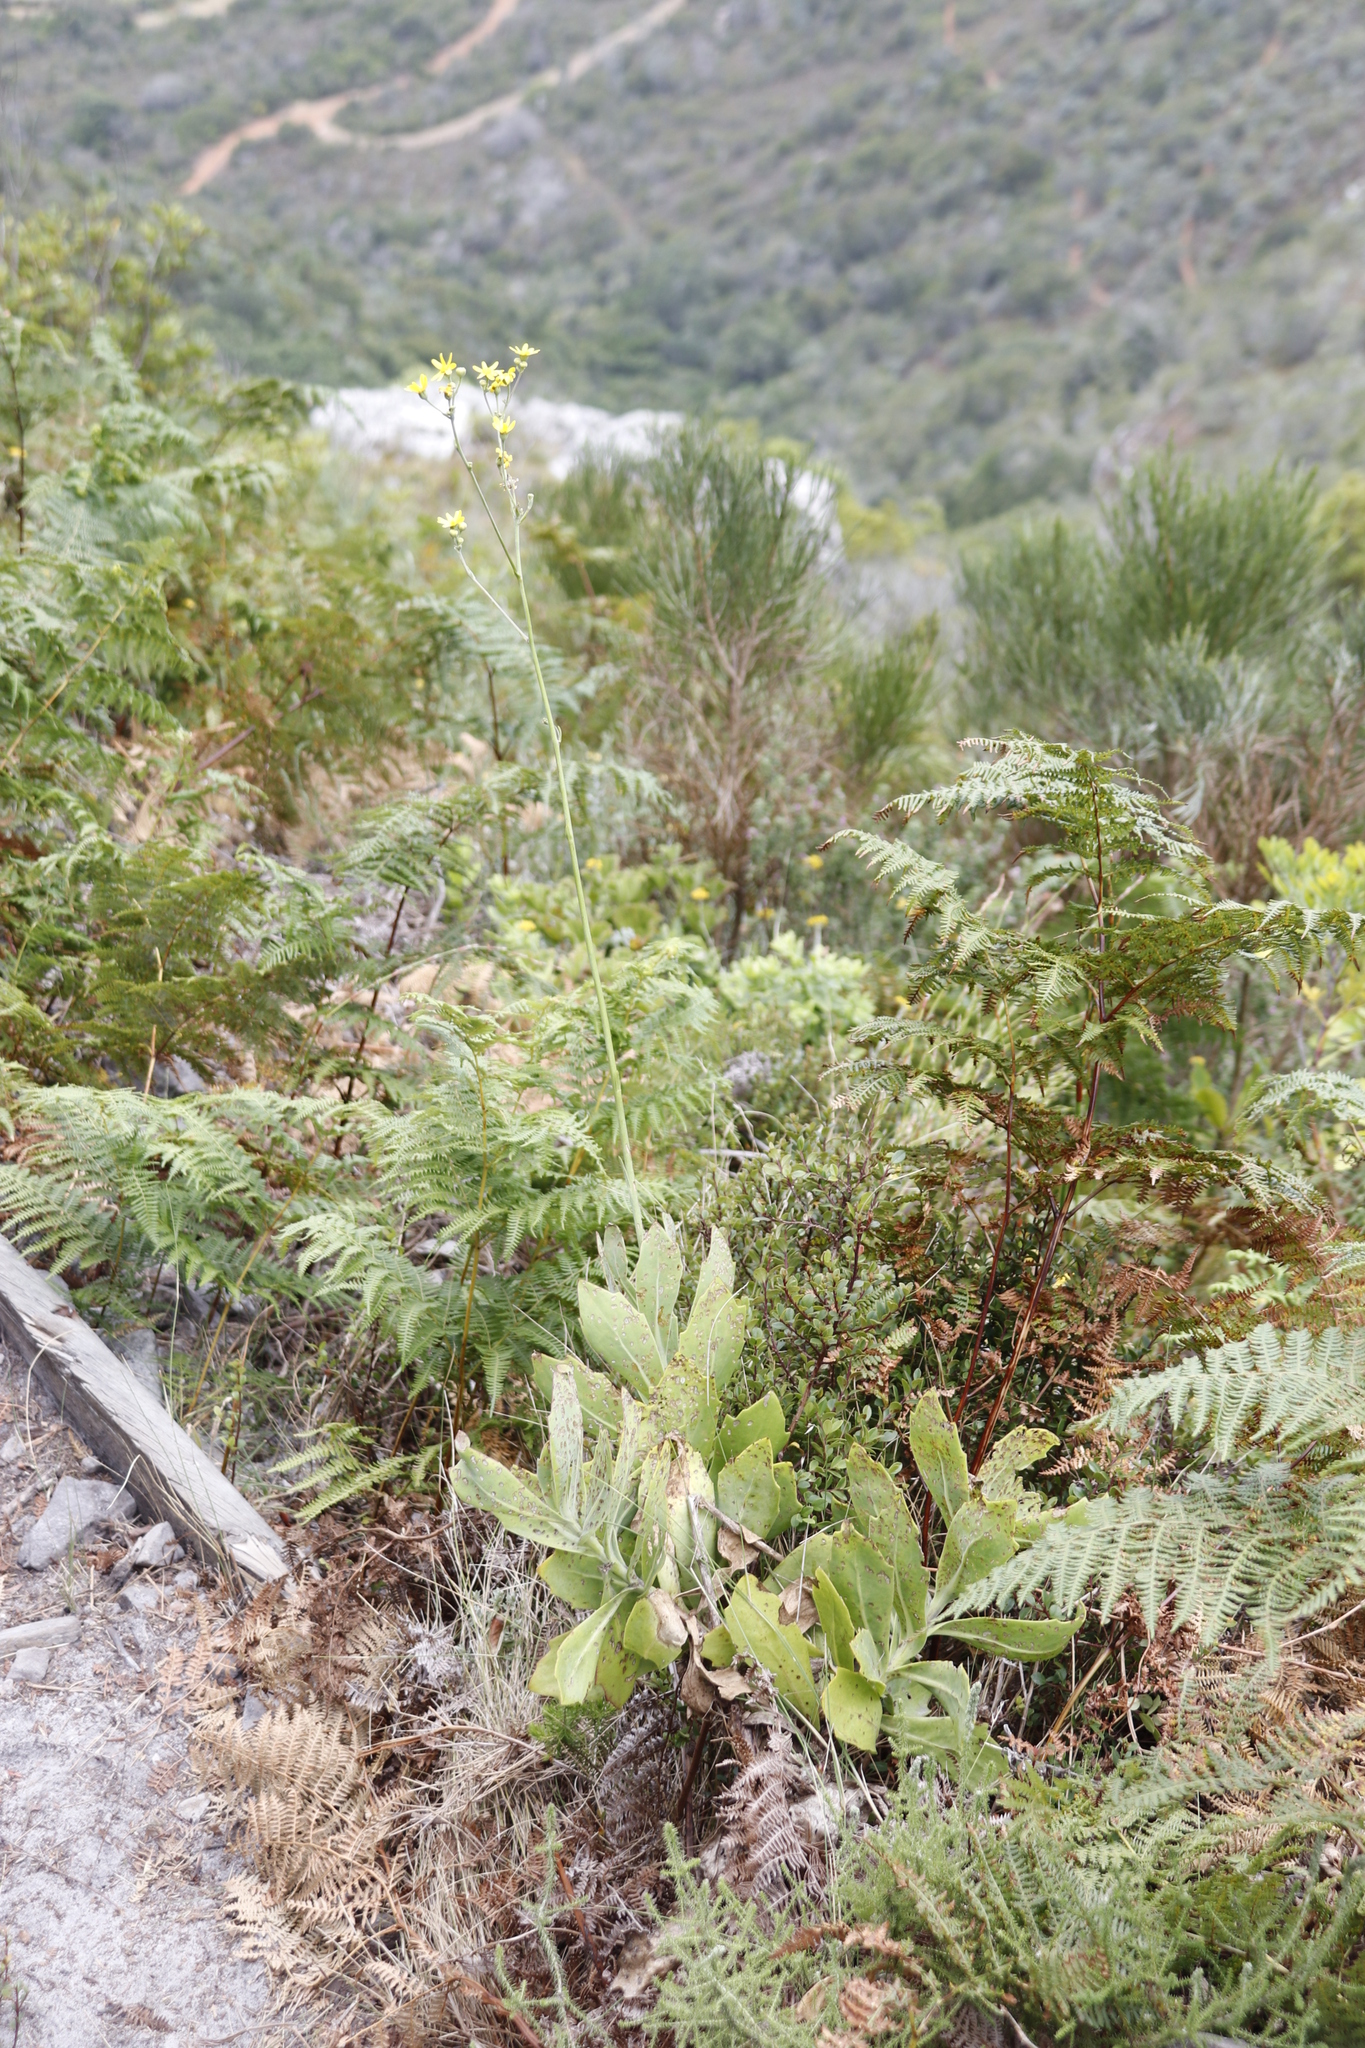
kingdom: Plantae
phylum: Tracheophyta
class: Magnoliopsida
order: Asterales
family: Asteraceae
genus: Othonna
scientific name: Othonna quinquedentata
